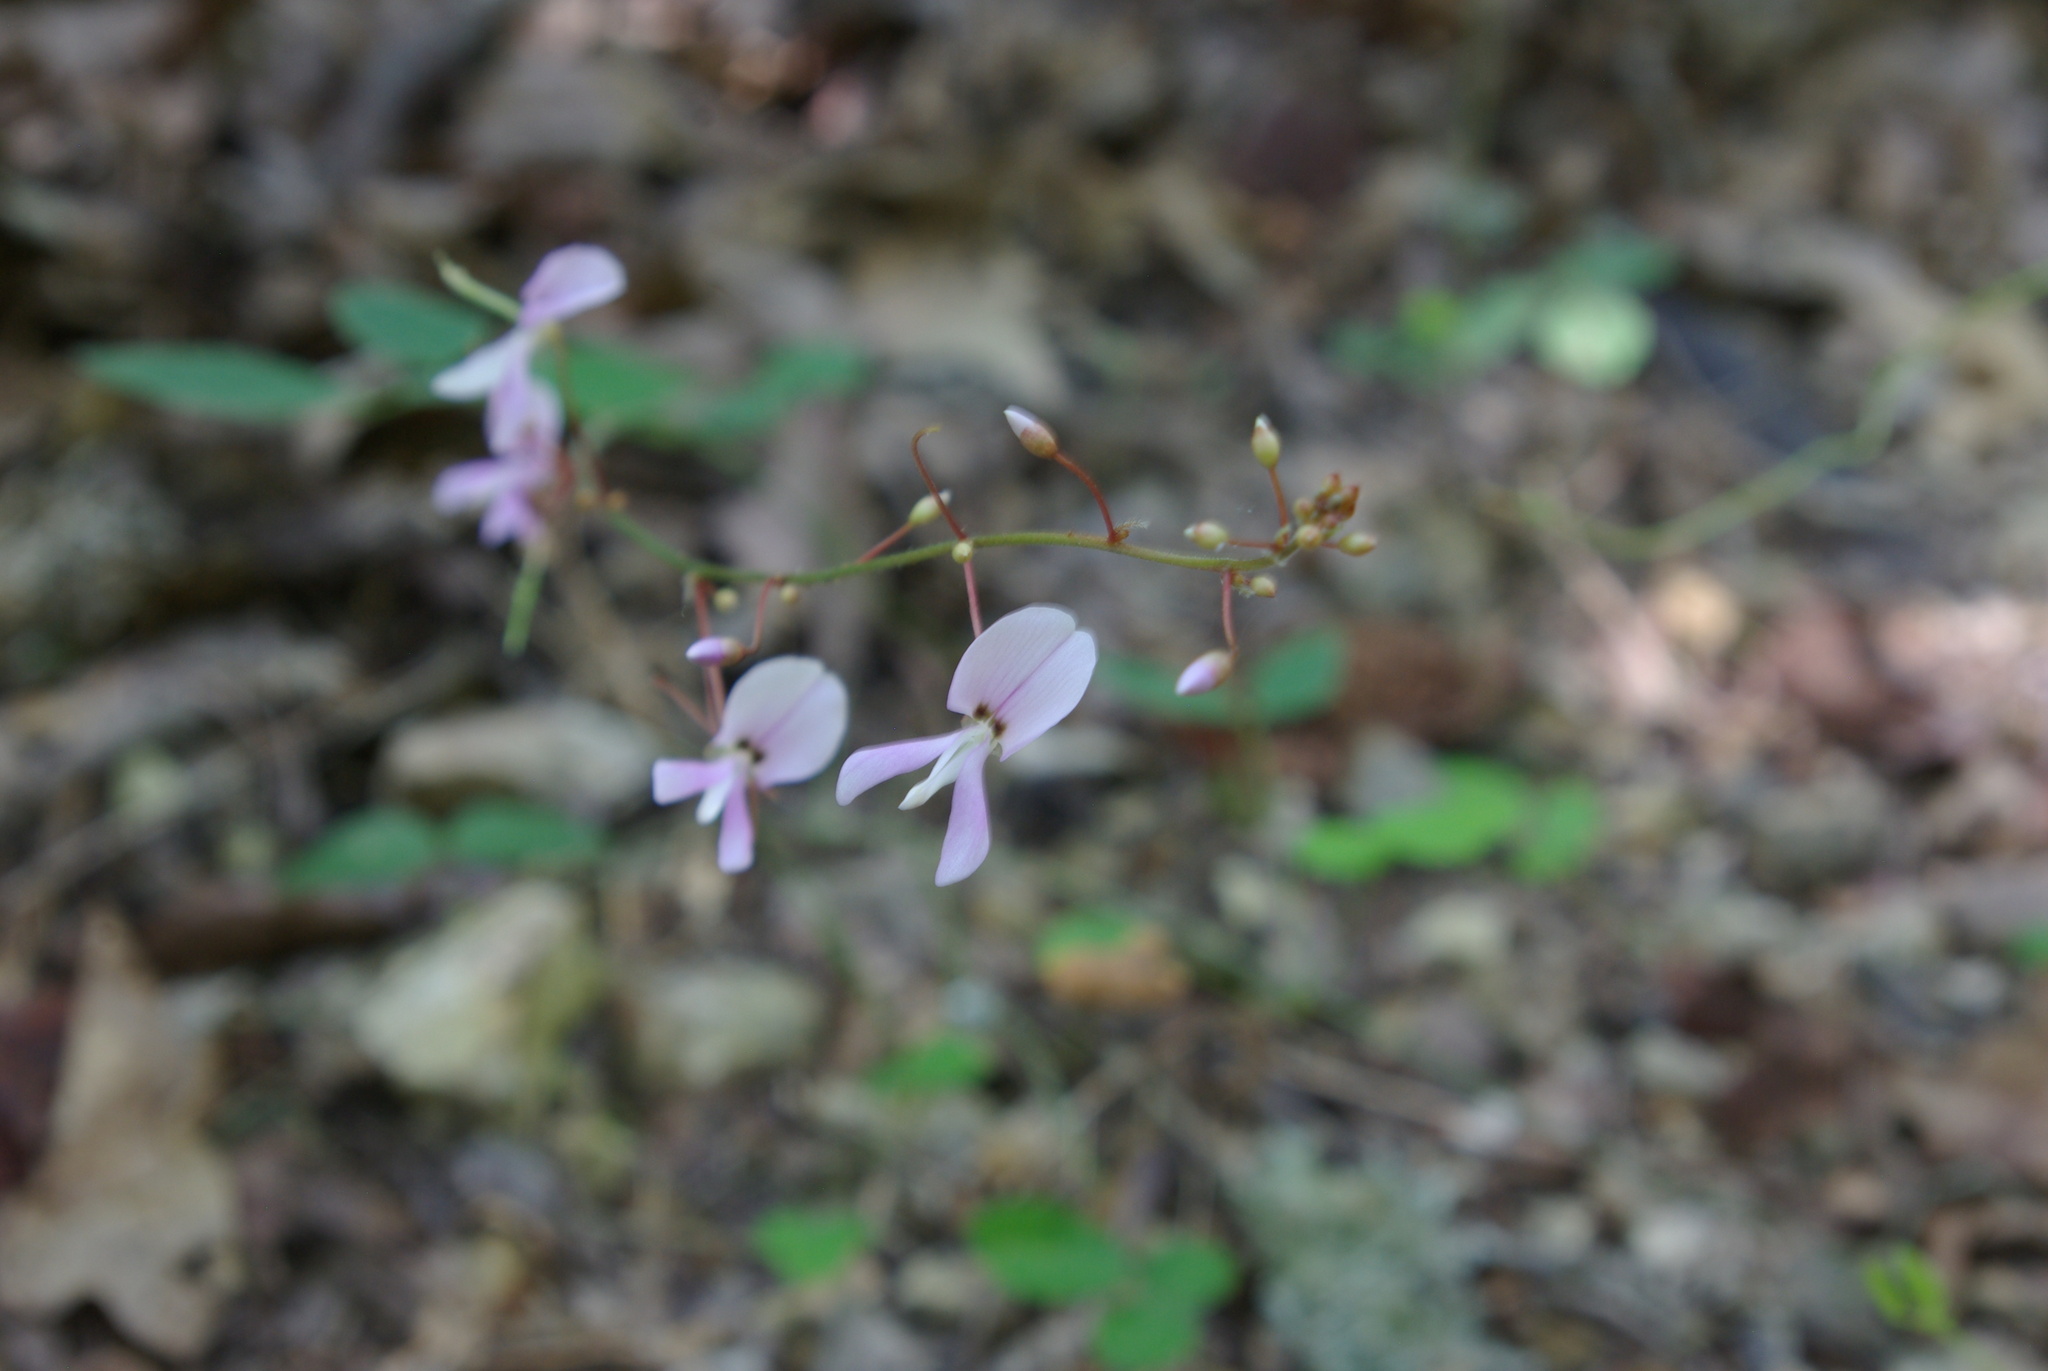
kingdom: Plantae
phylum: Tracheophyta
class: Magnoliopsida
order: Fabales
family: Fabaceae
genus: Hylodesmum
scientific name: Hylodesmum nudiflorum
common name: Bare-stemmed tick-trefoil
